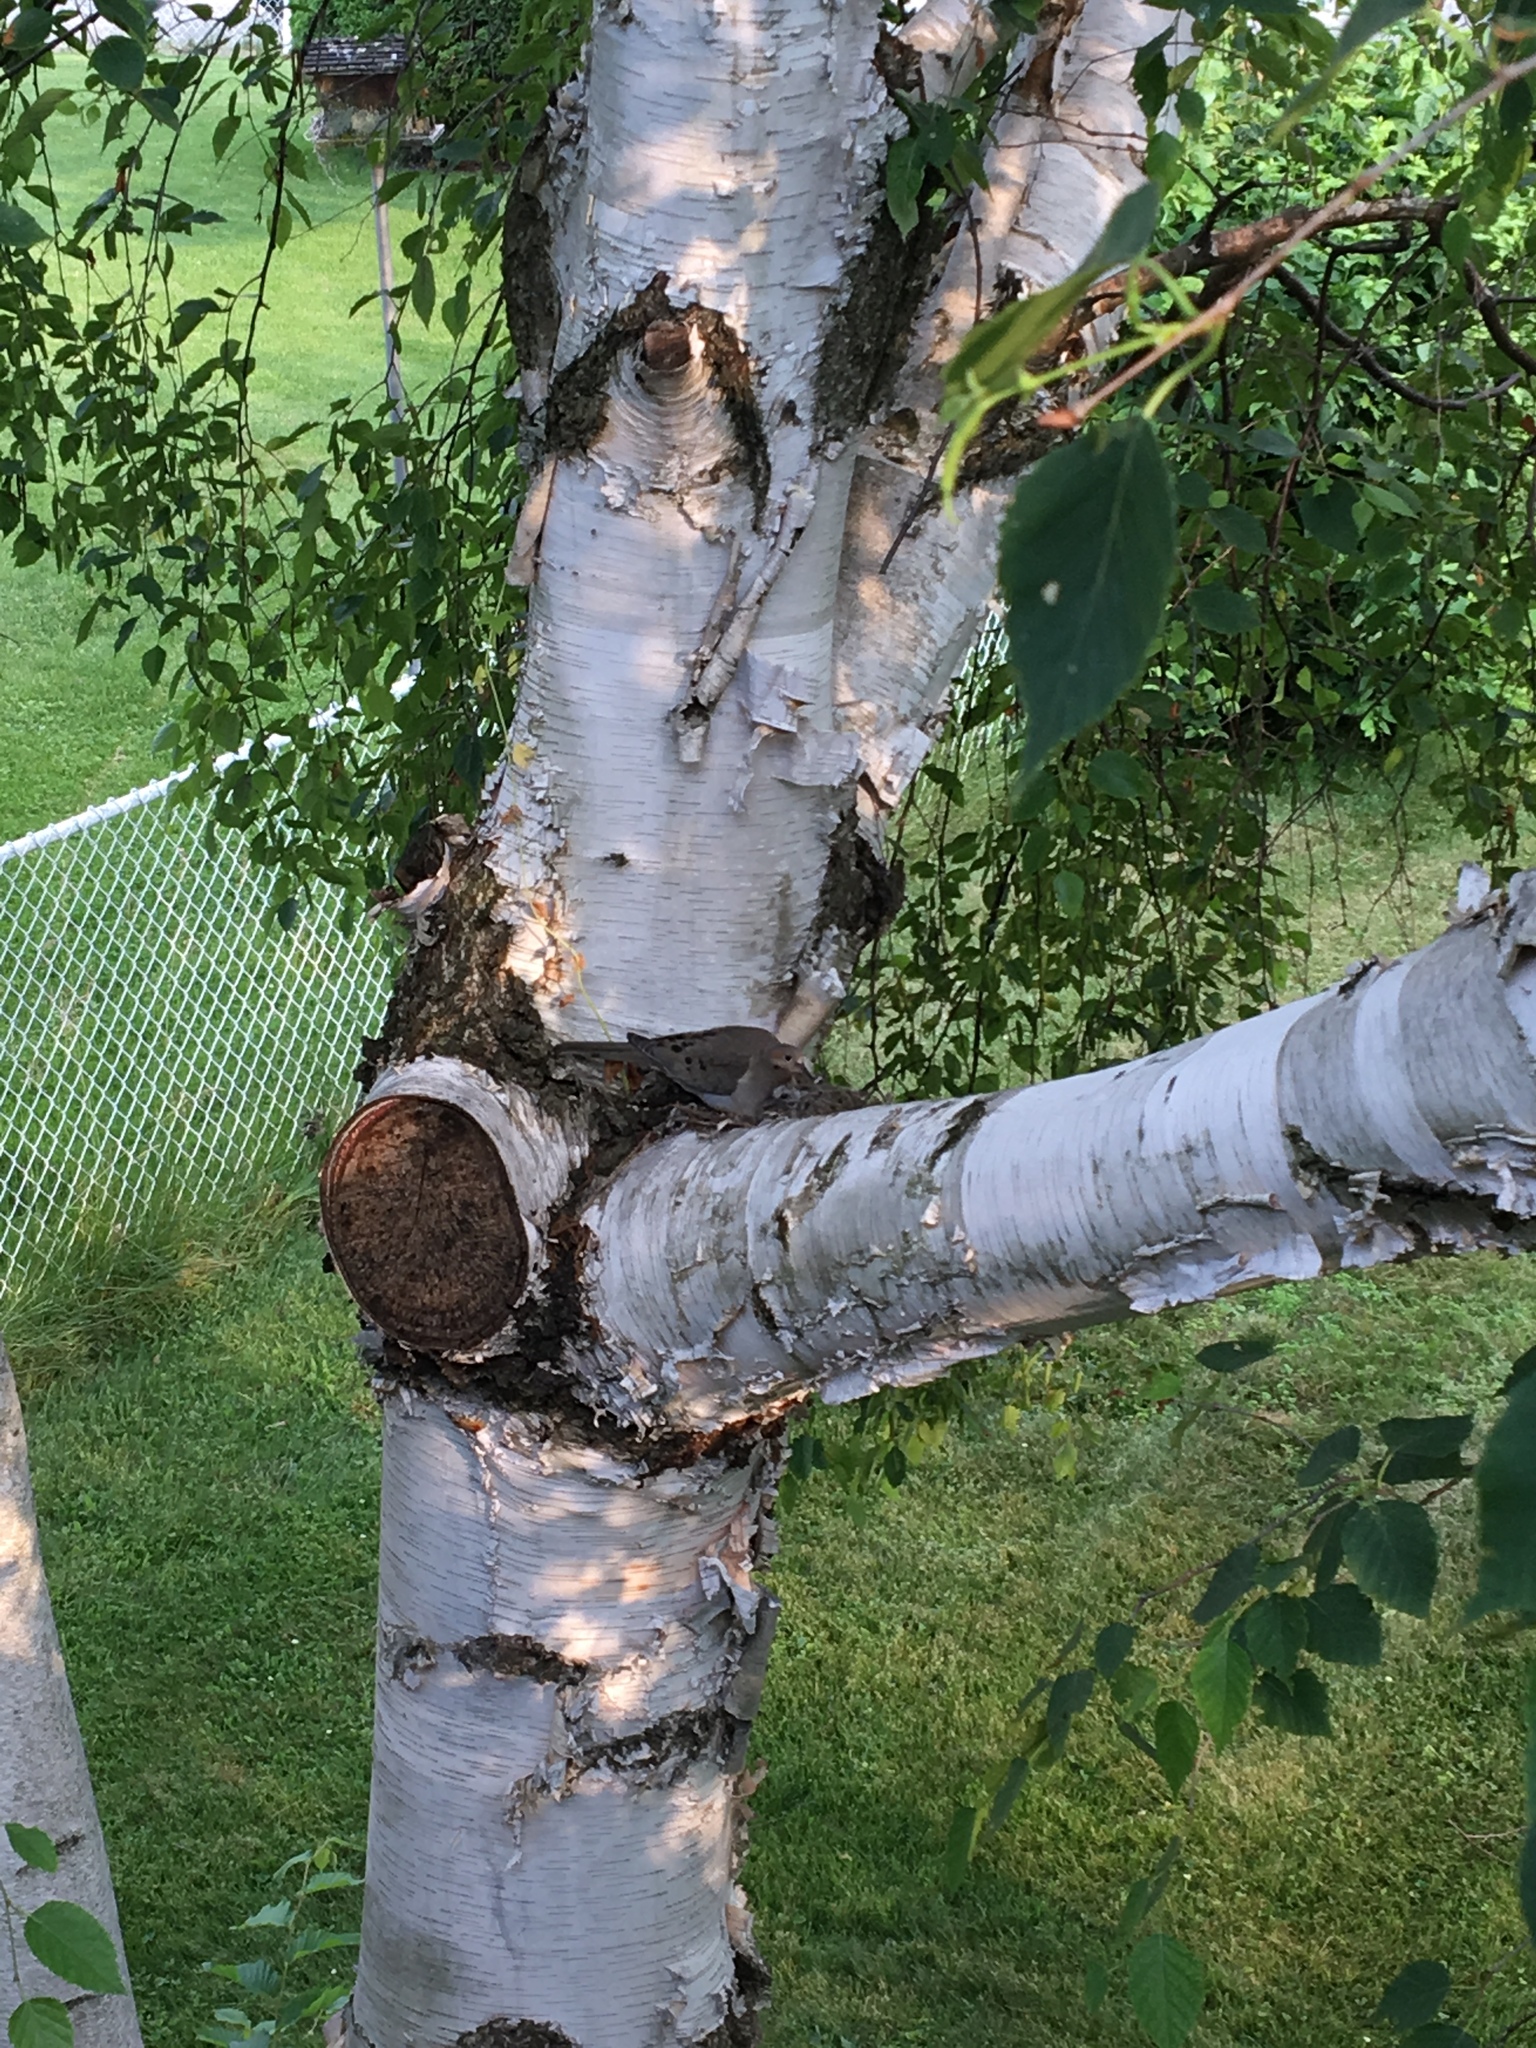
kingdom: Animalia
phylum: Chordata
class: Aves
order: Columbiformes
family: Columbidae
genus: Zenaida
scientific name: Zenaida macroura
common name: Mourning dove
